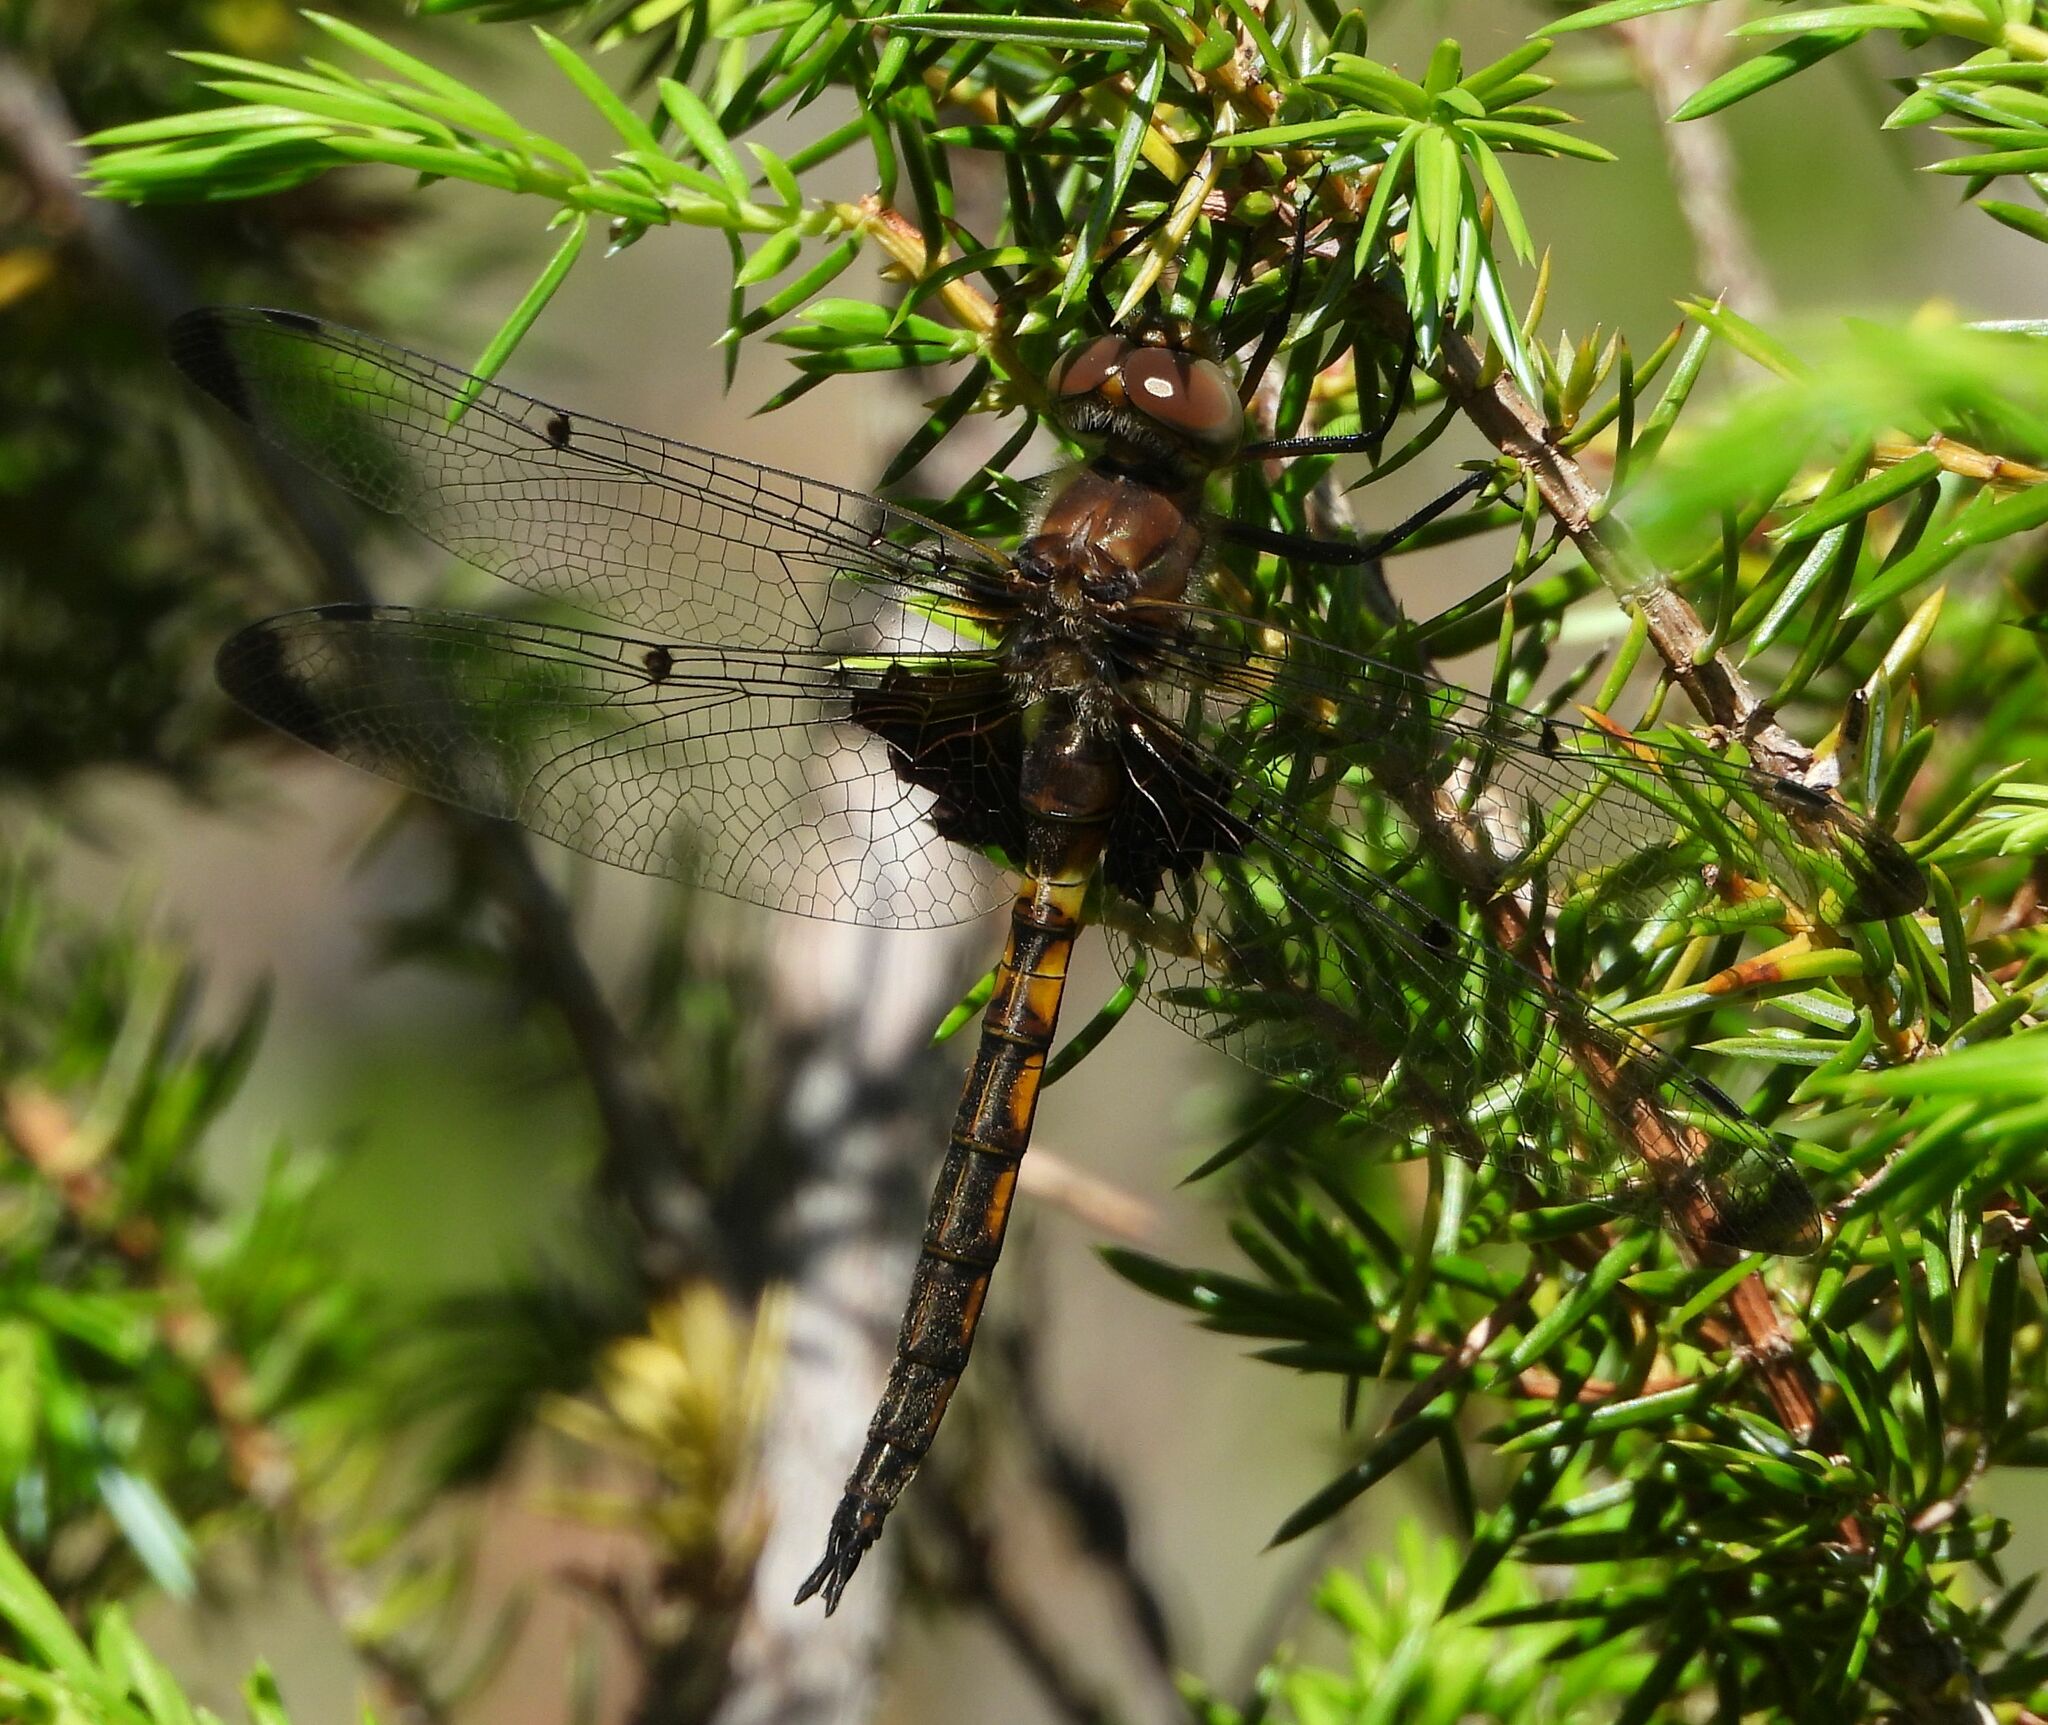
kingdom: Animalia
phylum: Arthropoda
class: Insecta
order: Odonata
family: Corduliidae
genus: Epitheca
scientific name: Epitheca princeps
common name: Prince baskettail
